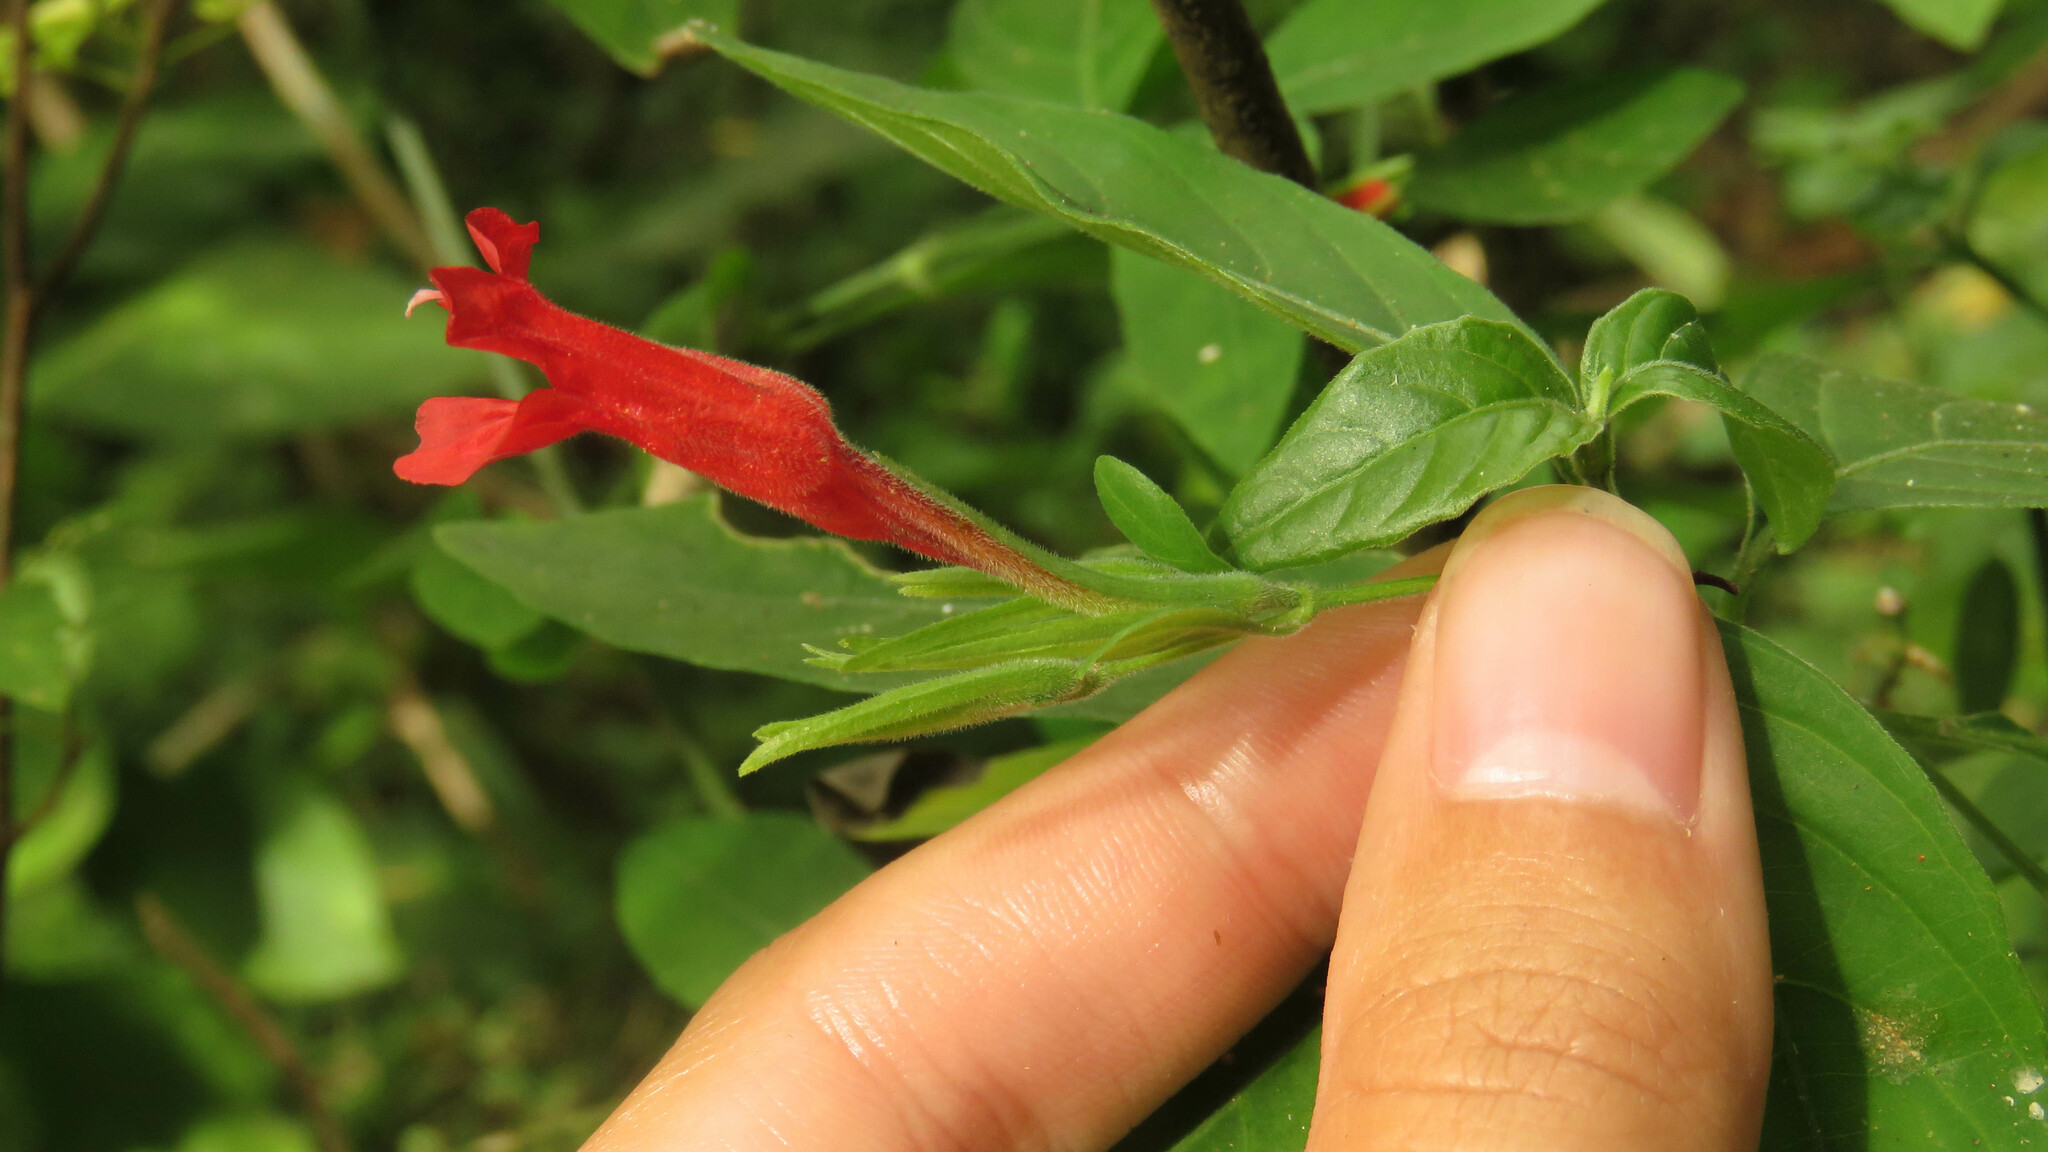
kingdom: Plantae
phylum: Tracheophyta
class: Magnoliopsida
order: Lamiales
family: Acanthaceae
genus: Ruellia
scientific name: Ruellia angustiflora
